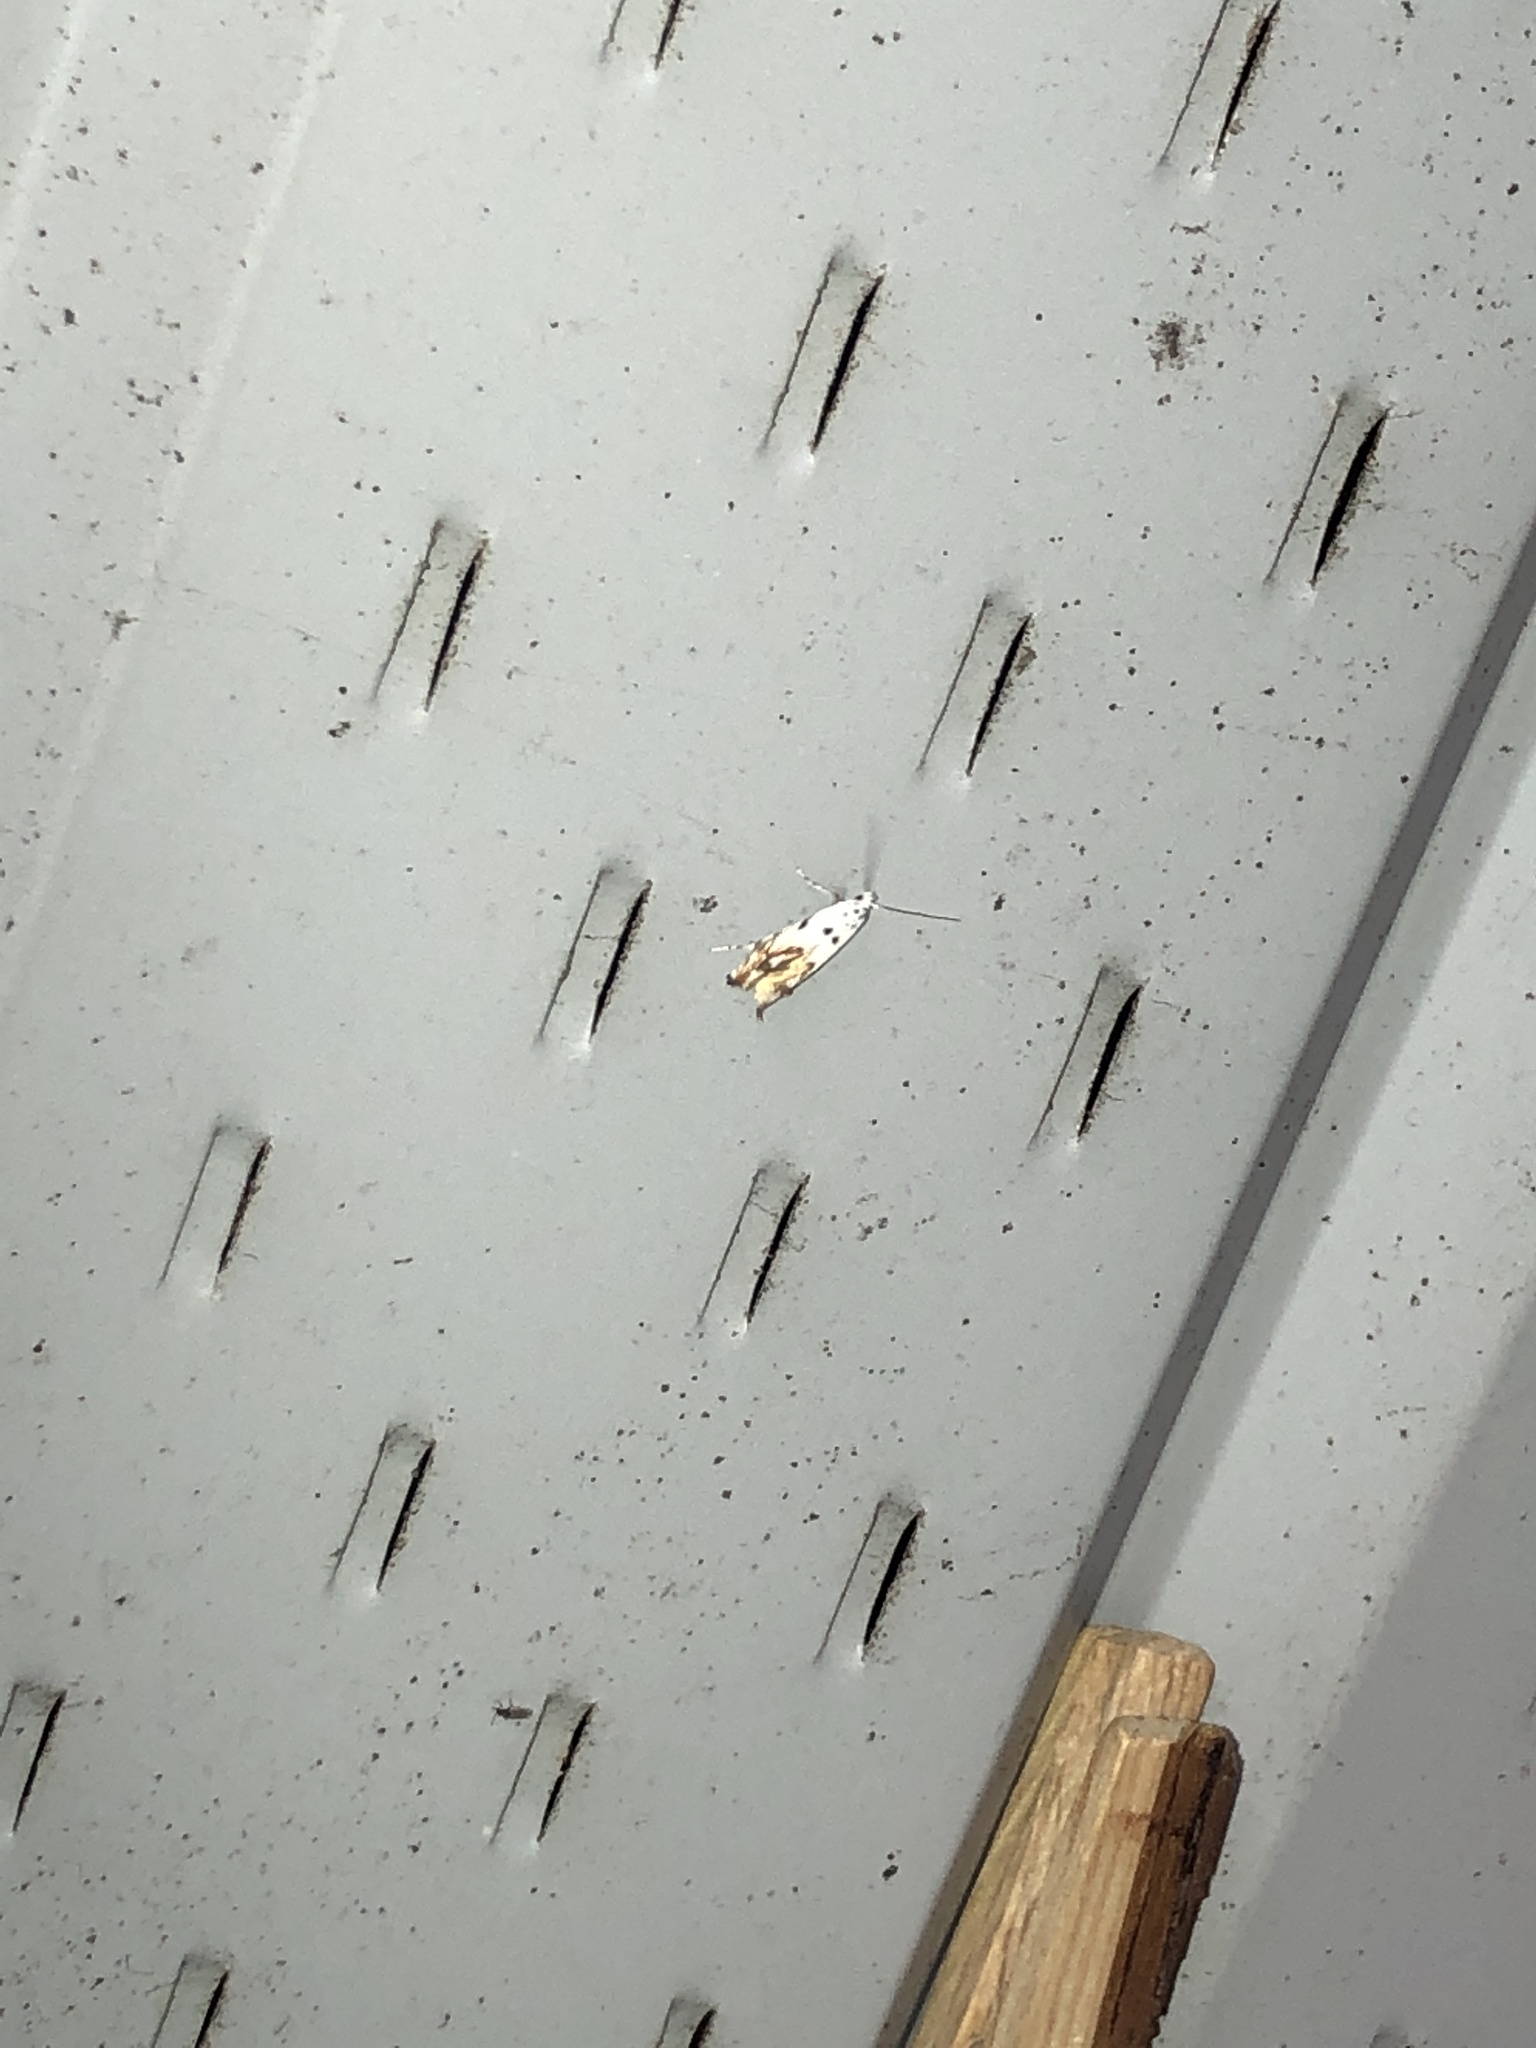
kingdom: Animalia
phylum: Arthropoda
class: Insecta
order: Lepidoptera
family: Momphidae
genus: Mompha
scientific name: Mompha eloisella
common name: Red-streaked mompha moth
